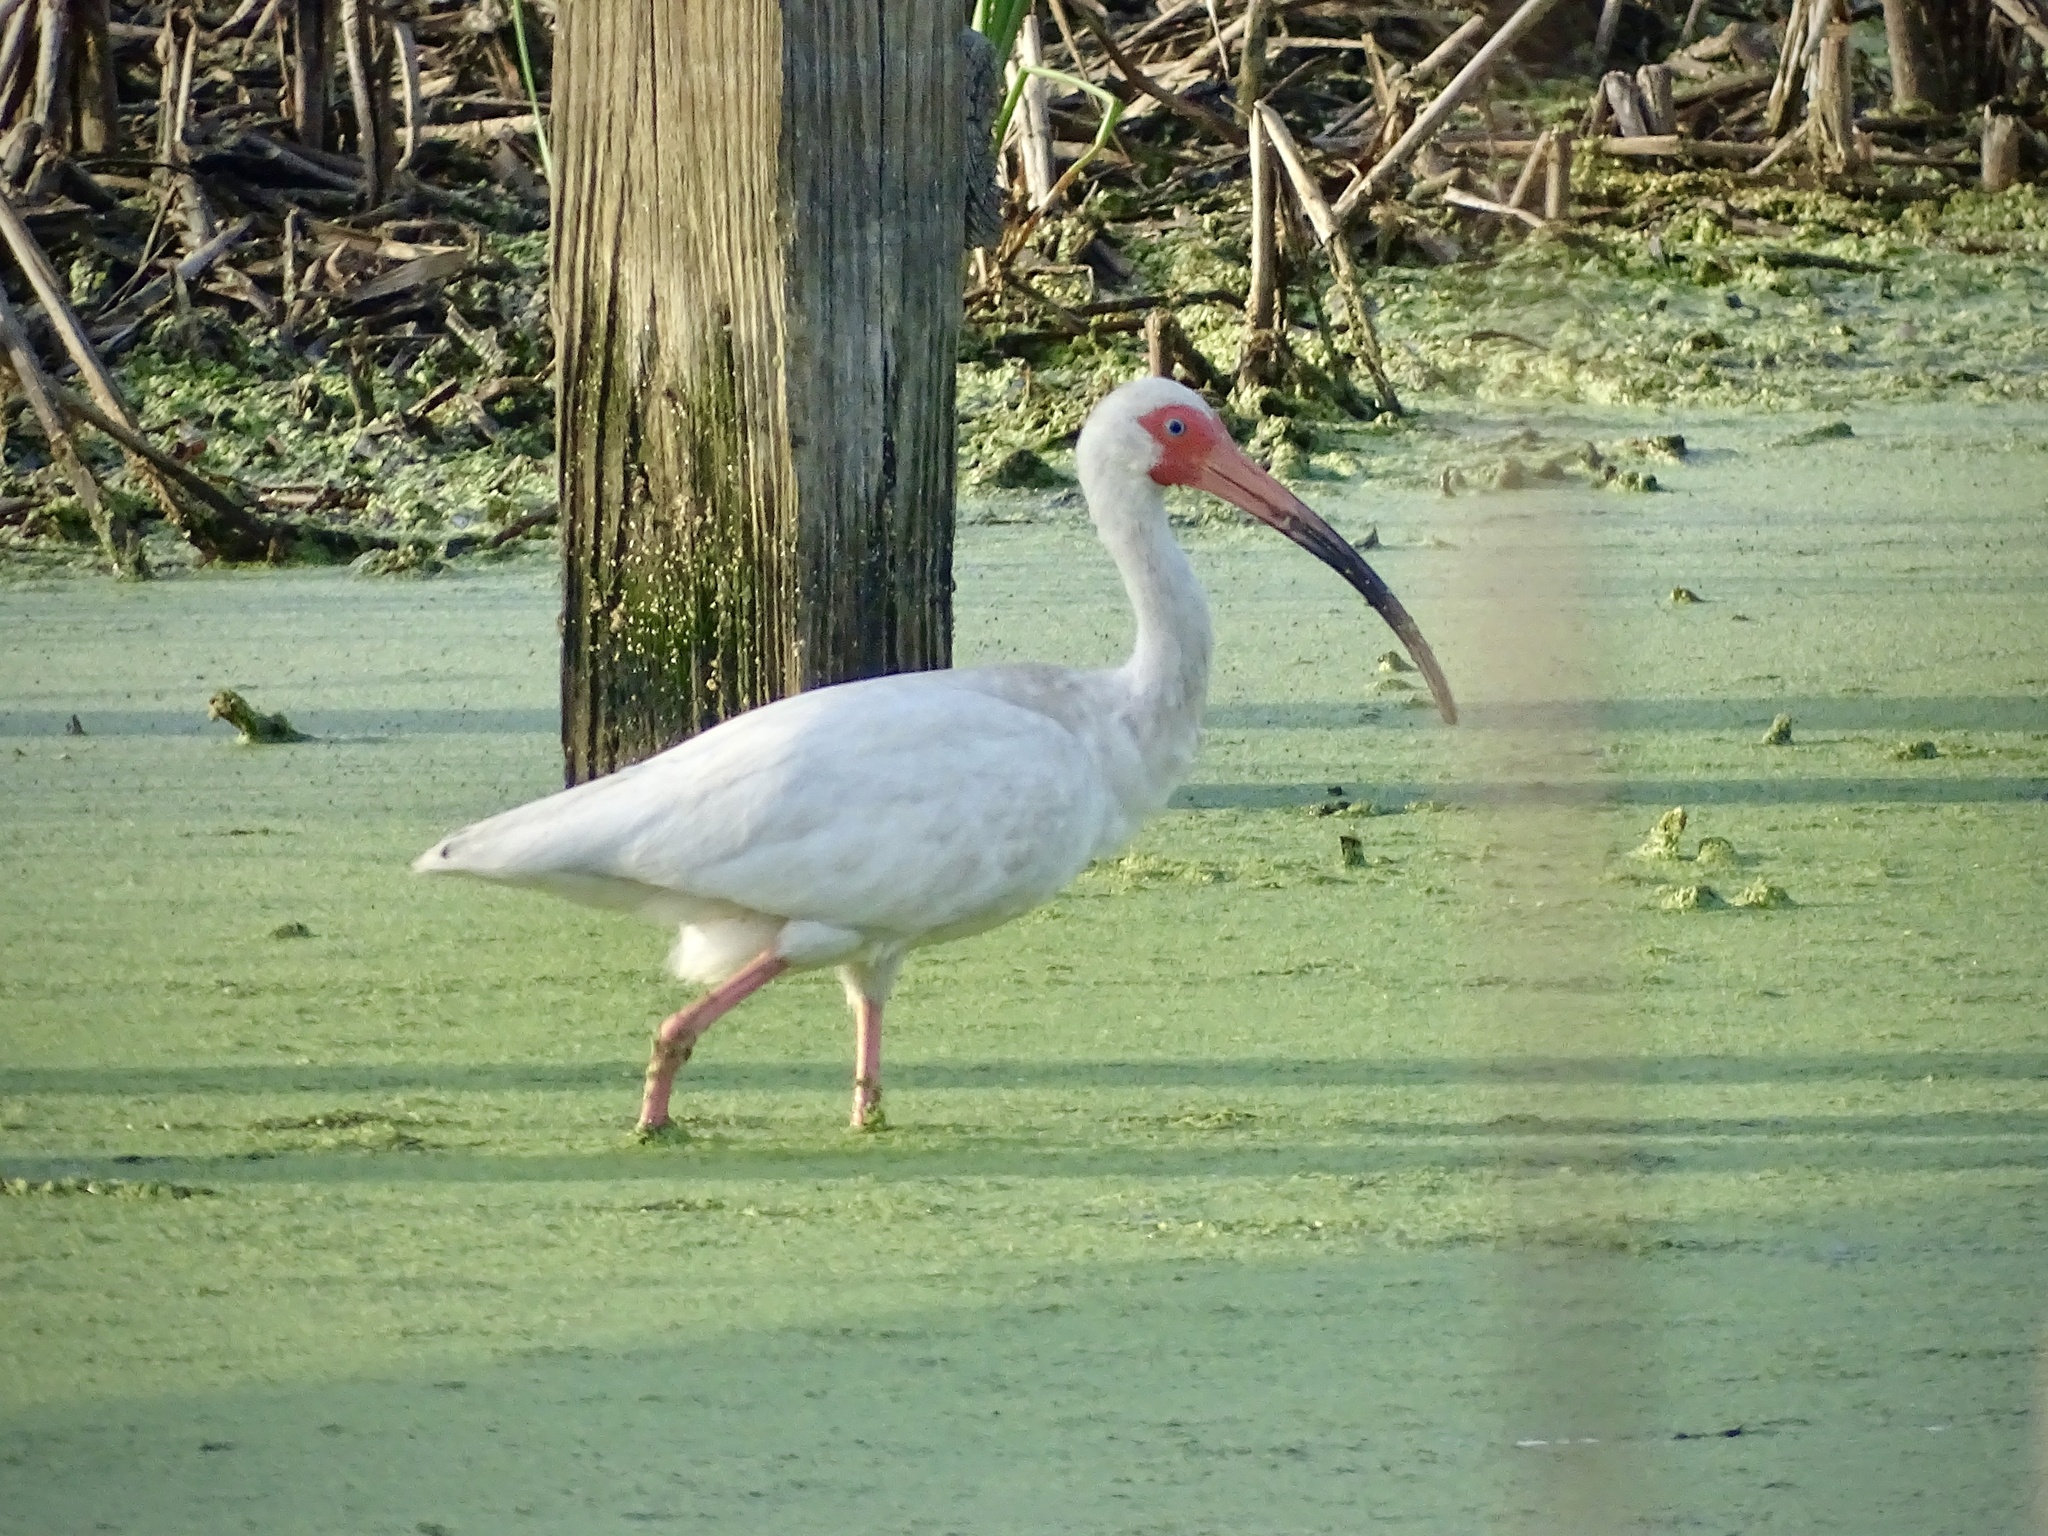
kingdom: Animalia
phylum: Chordata
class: Aves
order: Pelecaniformes
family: Threskiornithidae
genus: Eudocimus
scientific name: Eudocimus albus
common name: White ibis
